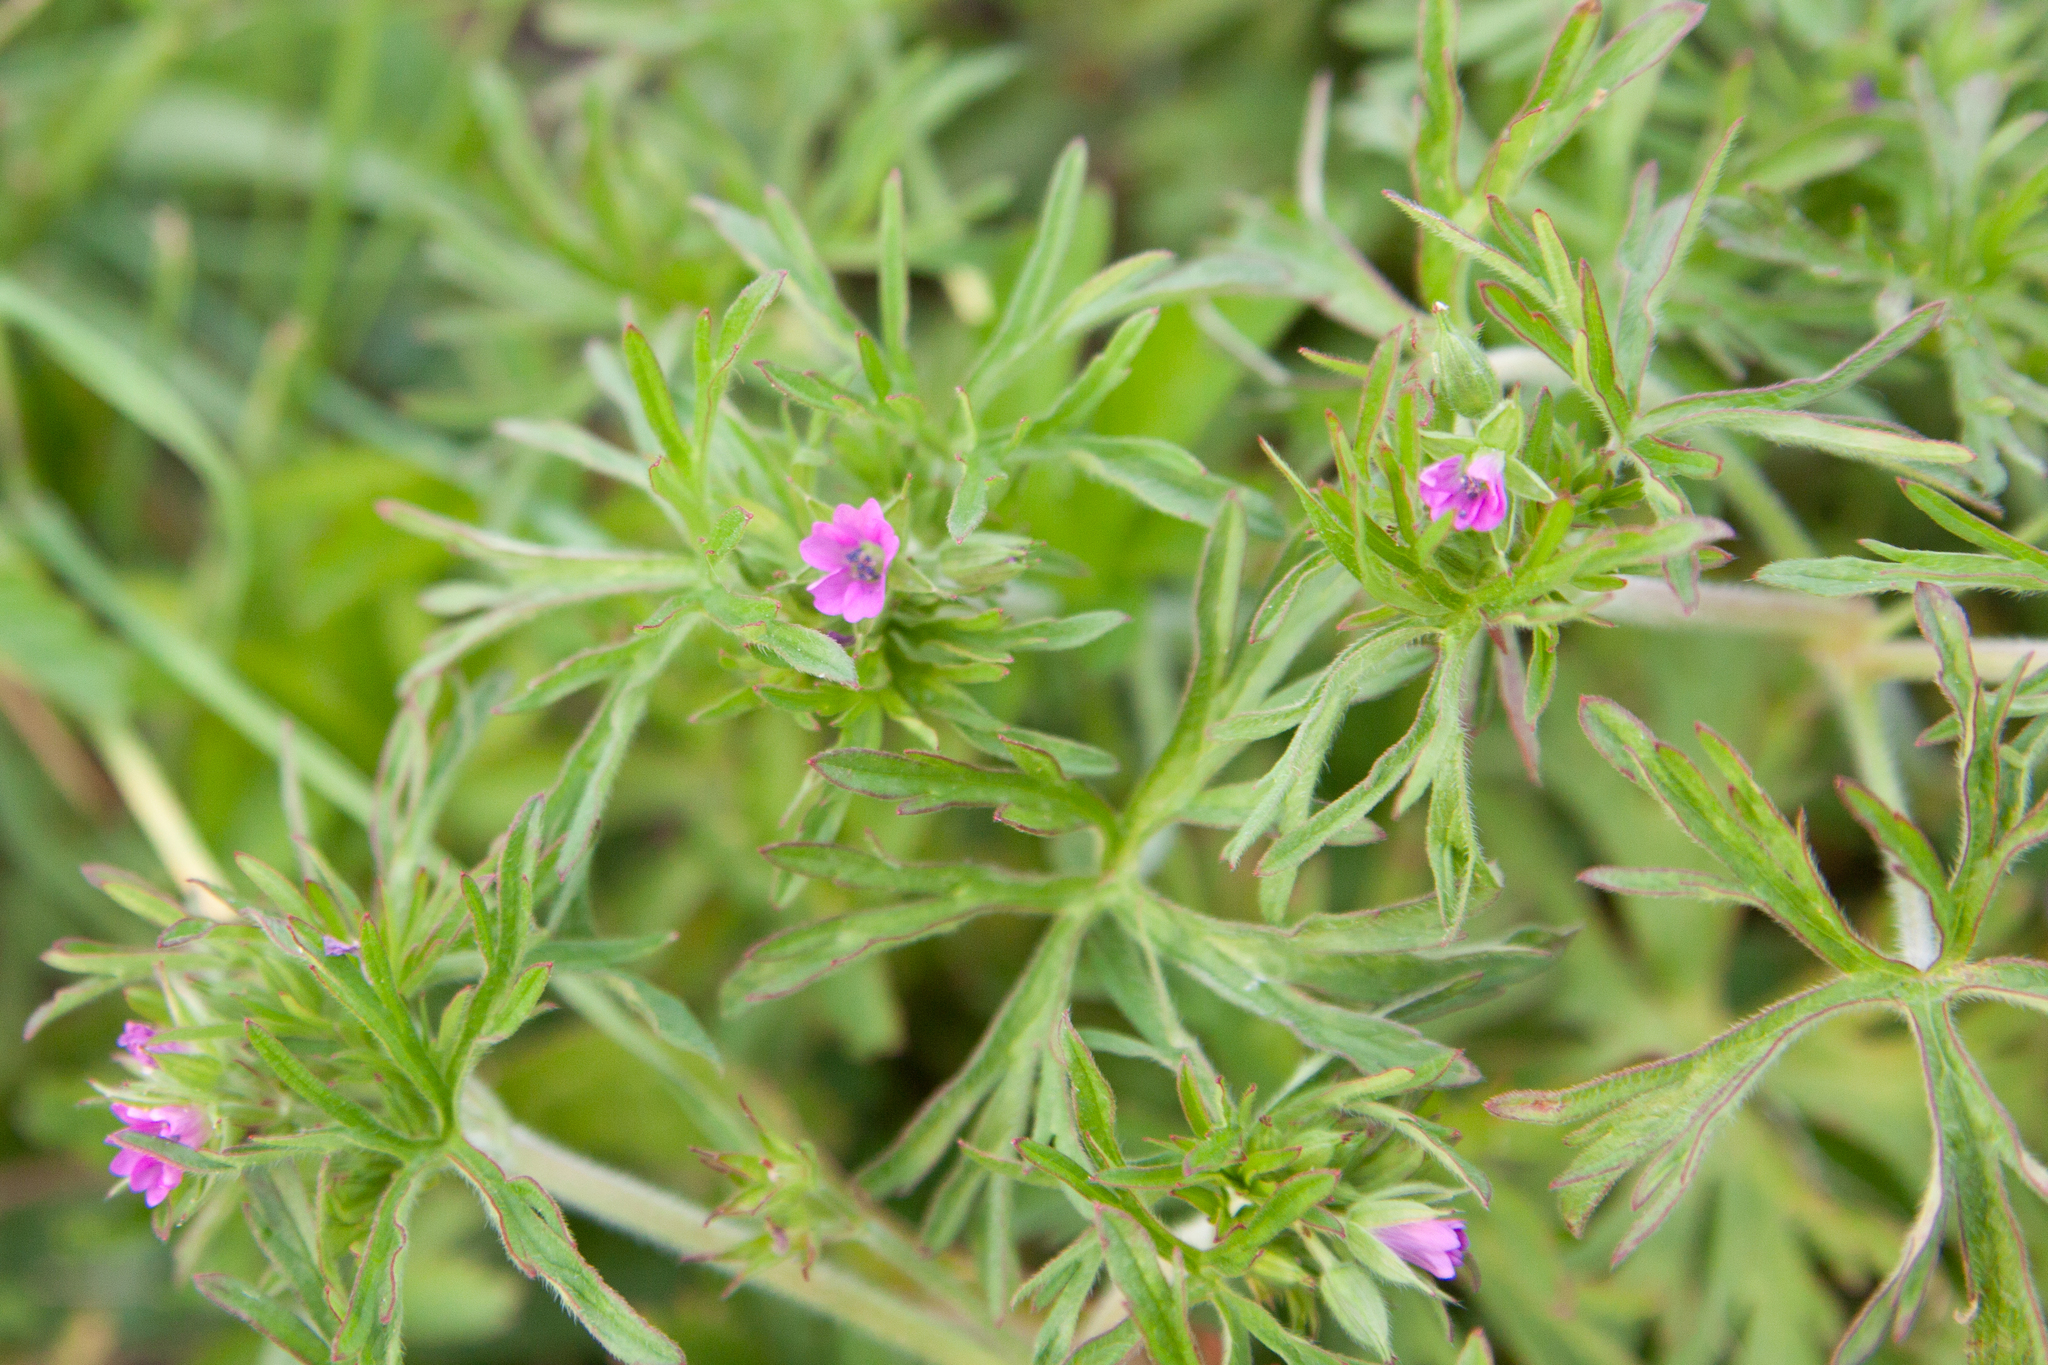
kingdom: Plantae
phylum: Tracheophyta
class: Magnoliopsida
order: Geraniales
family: Geraniaceae
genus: Geranium
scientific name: Geranium dissectum
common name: Cut-leaved crane's-bill
